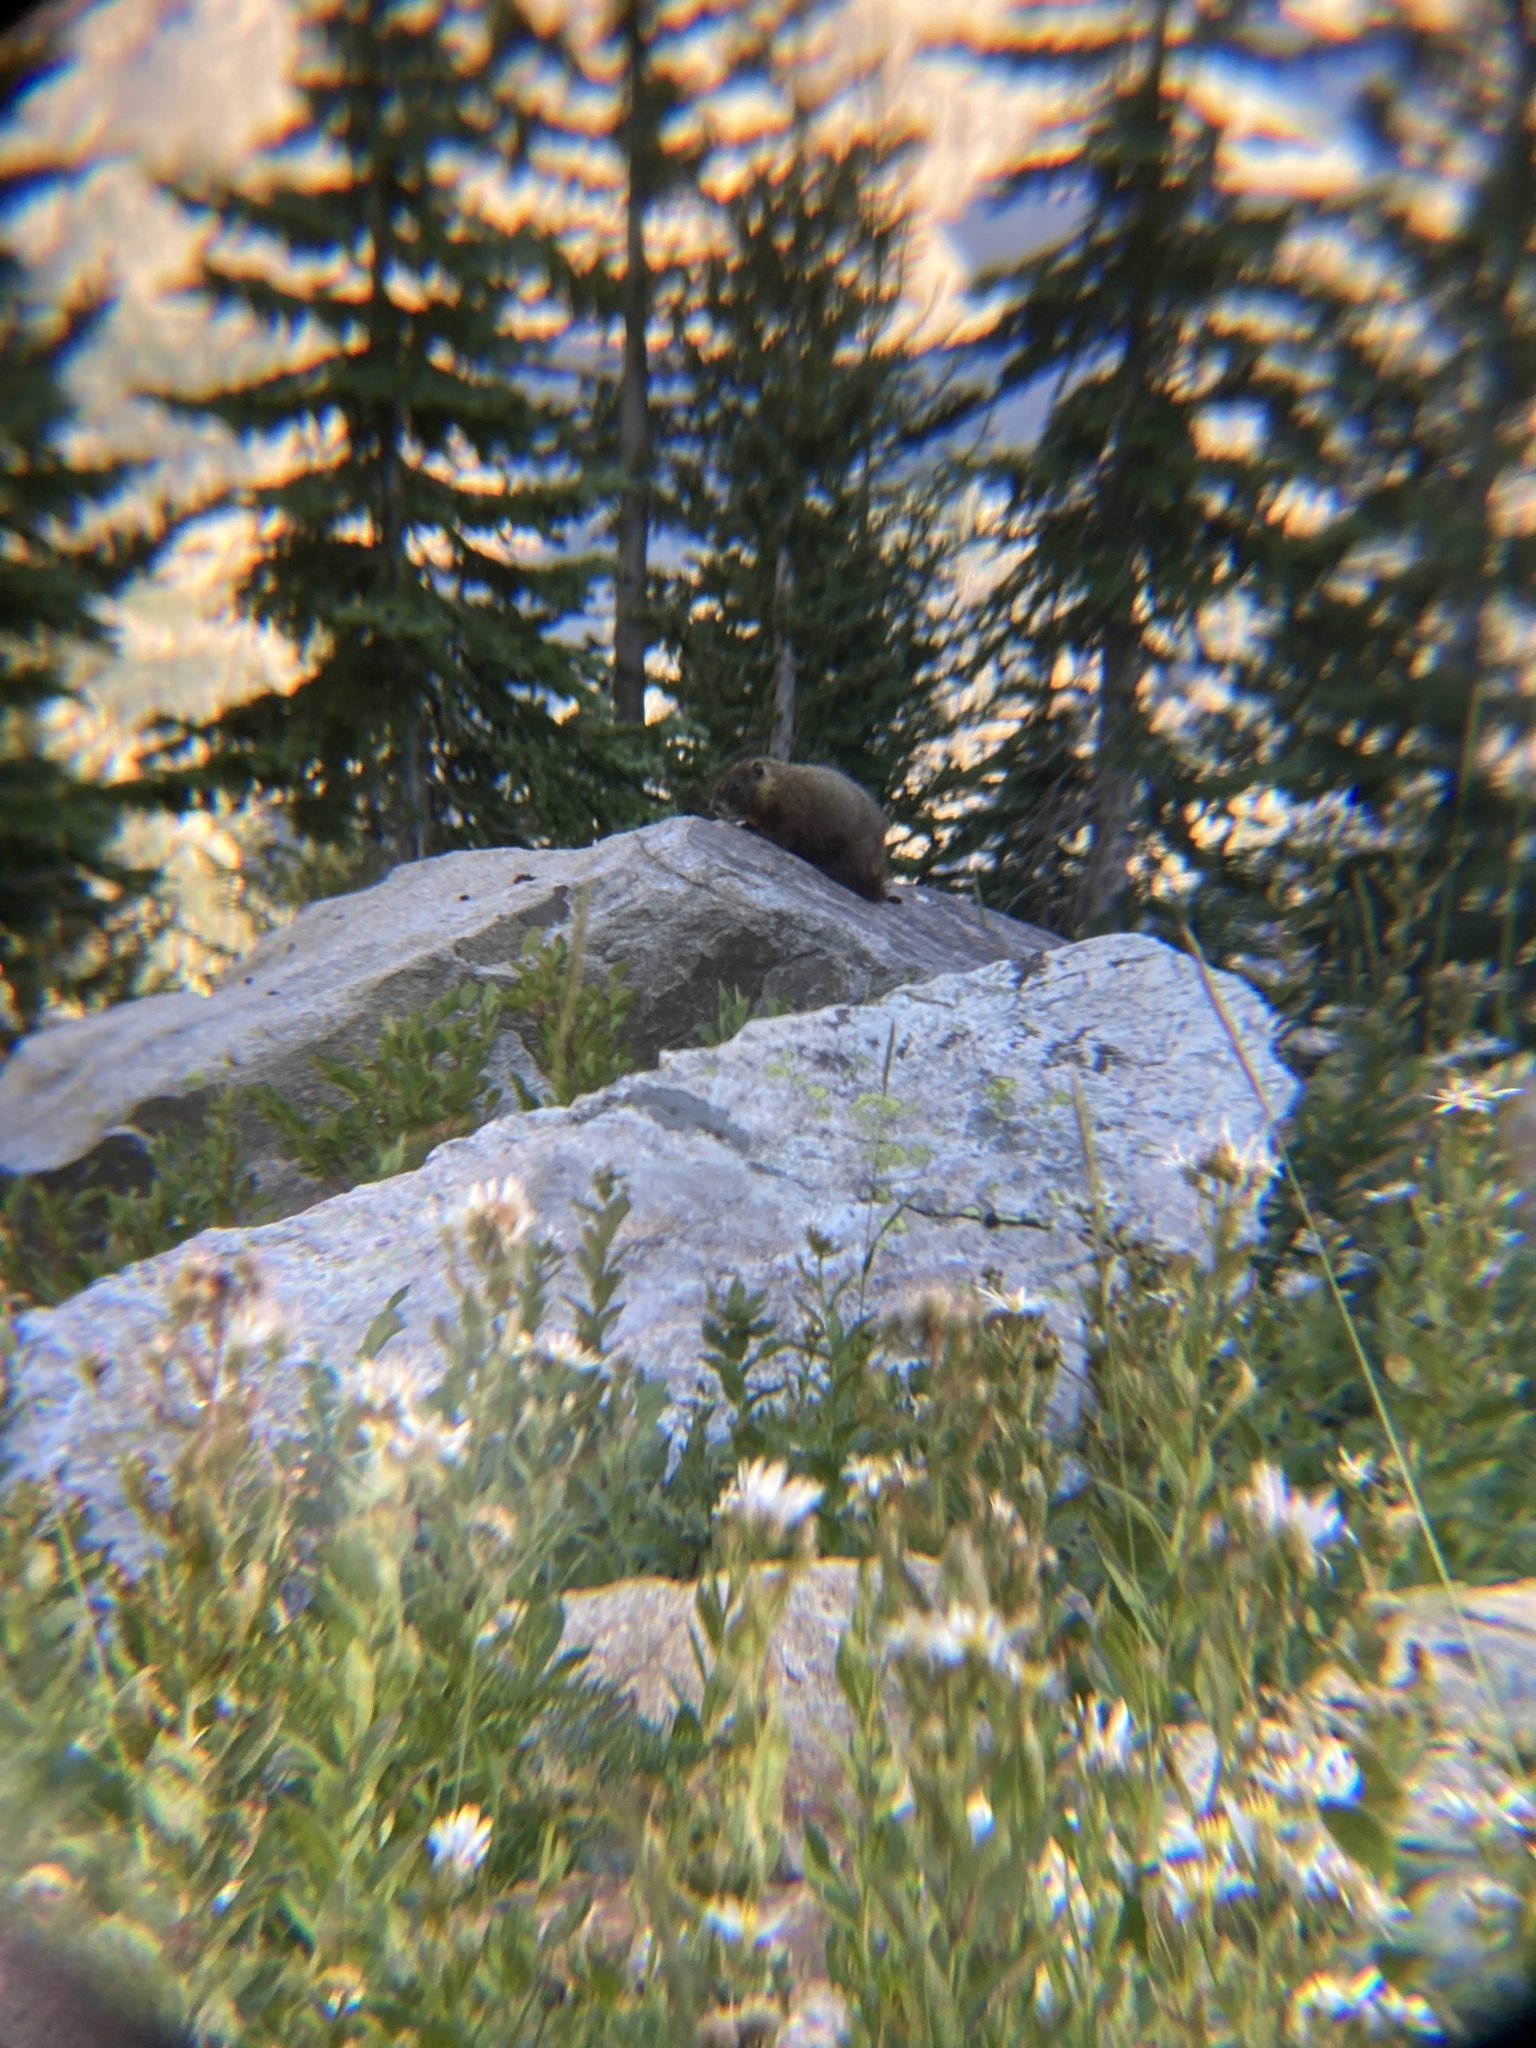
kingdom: Animalia
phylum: Chordata
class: Mammalia
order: Rodentia
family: Sciuridae
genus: Marmota
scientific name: Marmota flaviventris
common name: Yellow-bellied marmot
